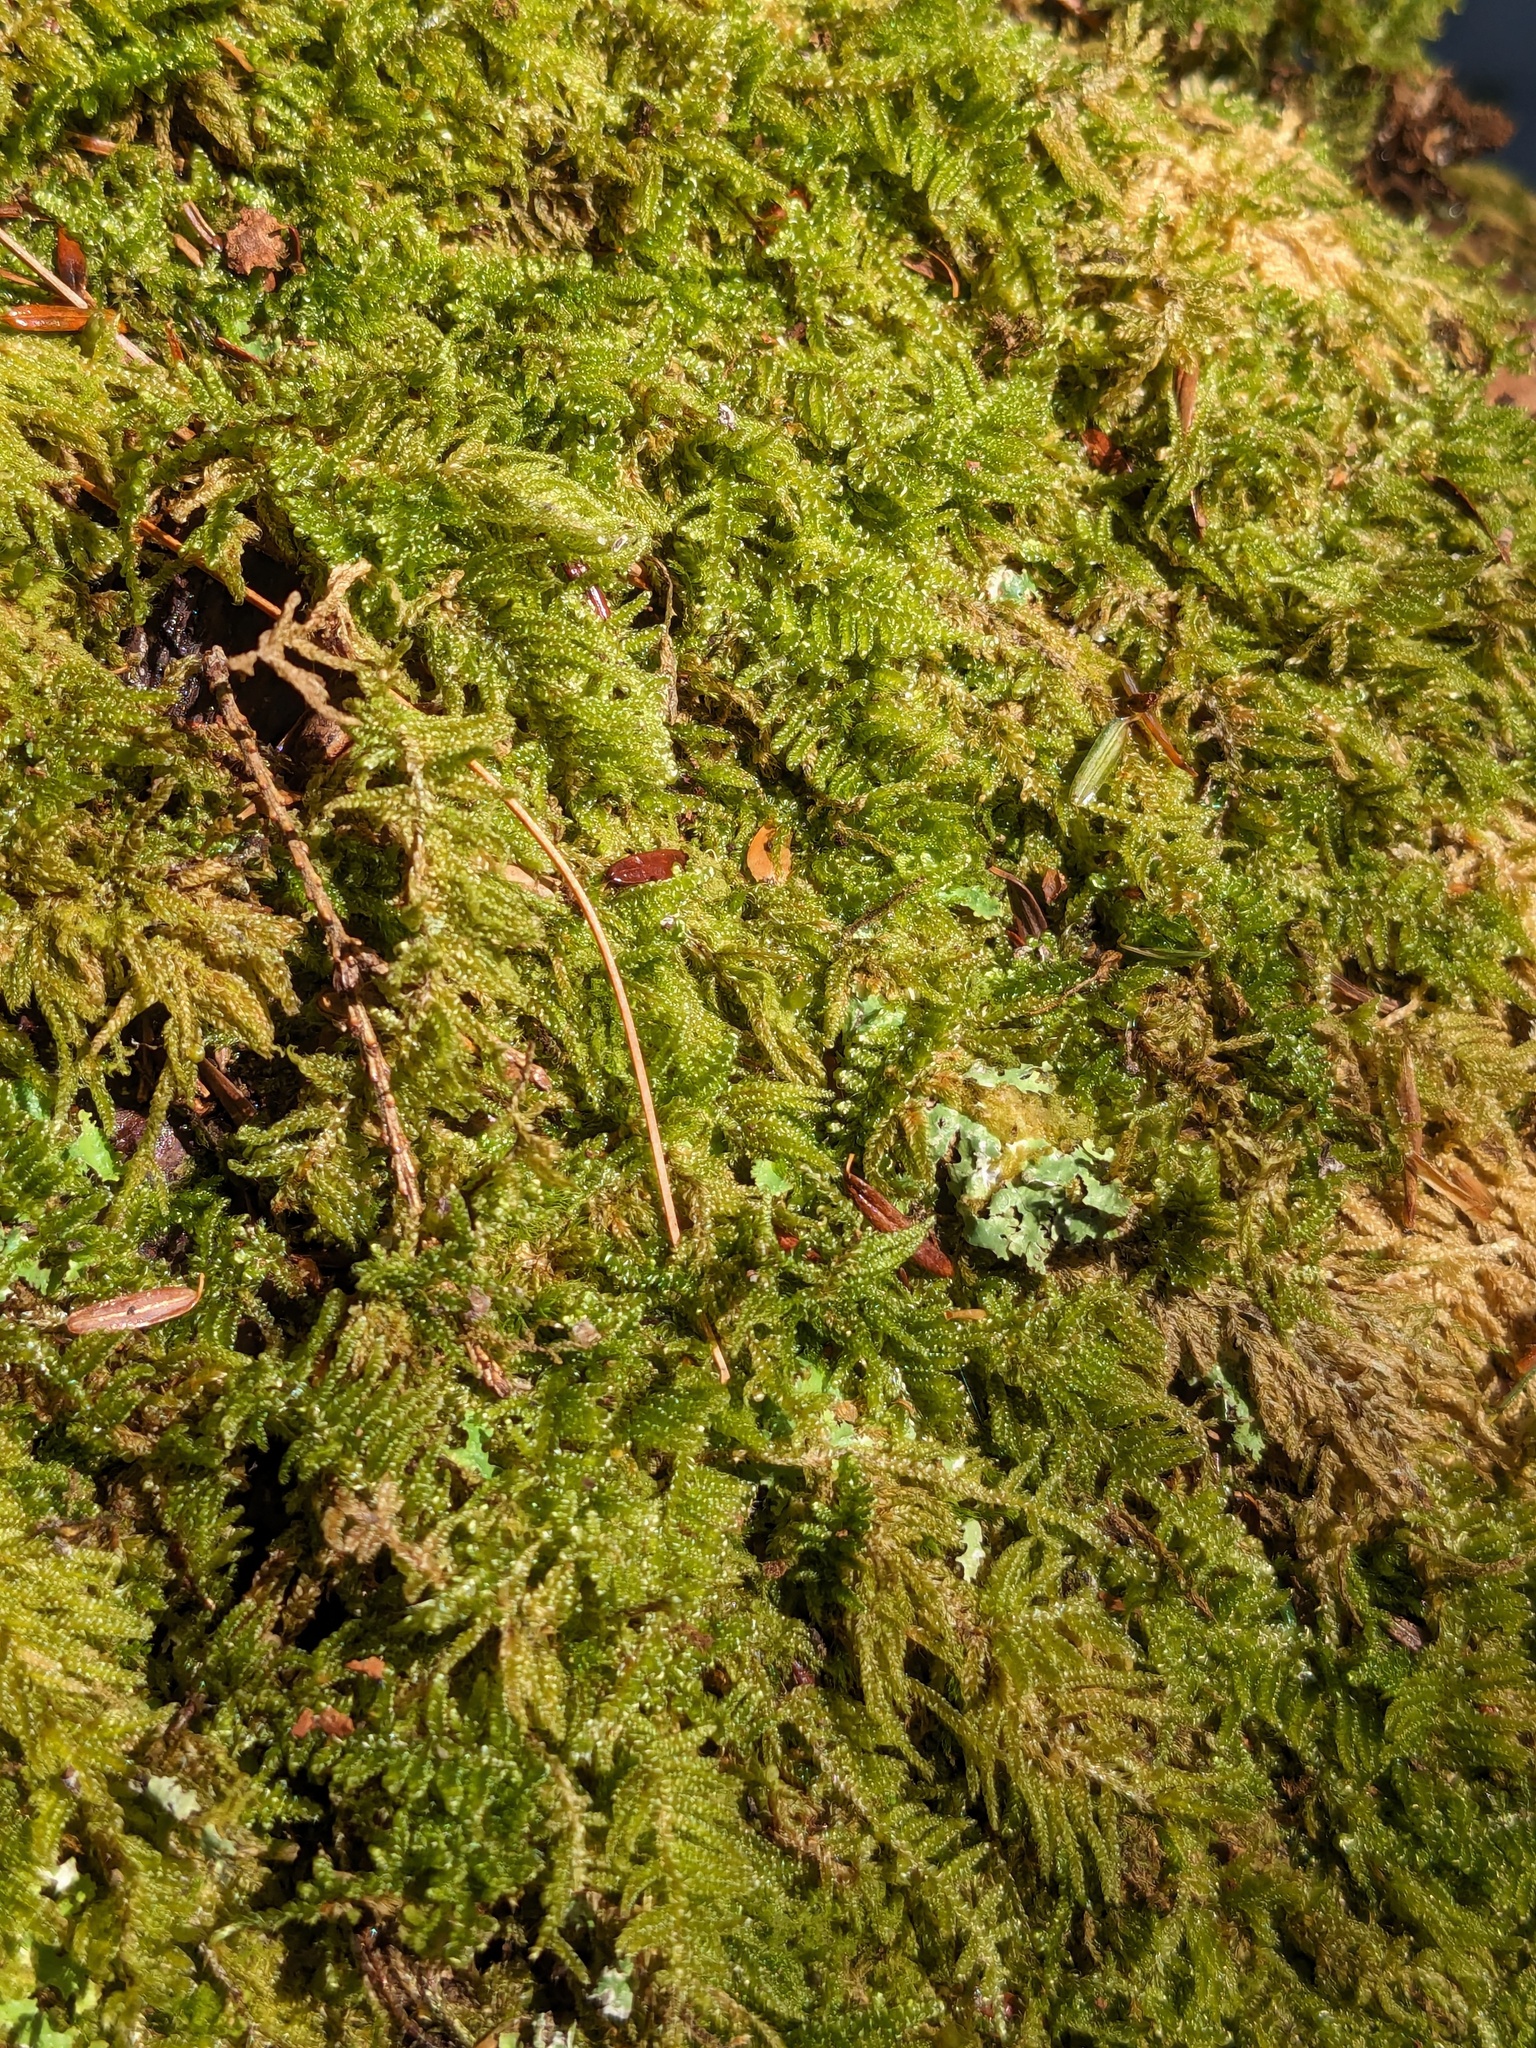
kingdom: Plantae
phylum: Bryophyta
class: Bryopsida
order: Hypnales
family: Callicladiaceae
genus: Callicladium
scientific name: Callicladium imponens
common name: Brocade moss
